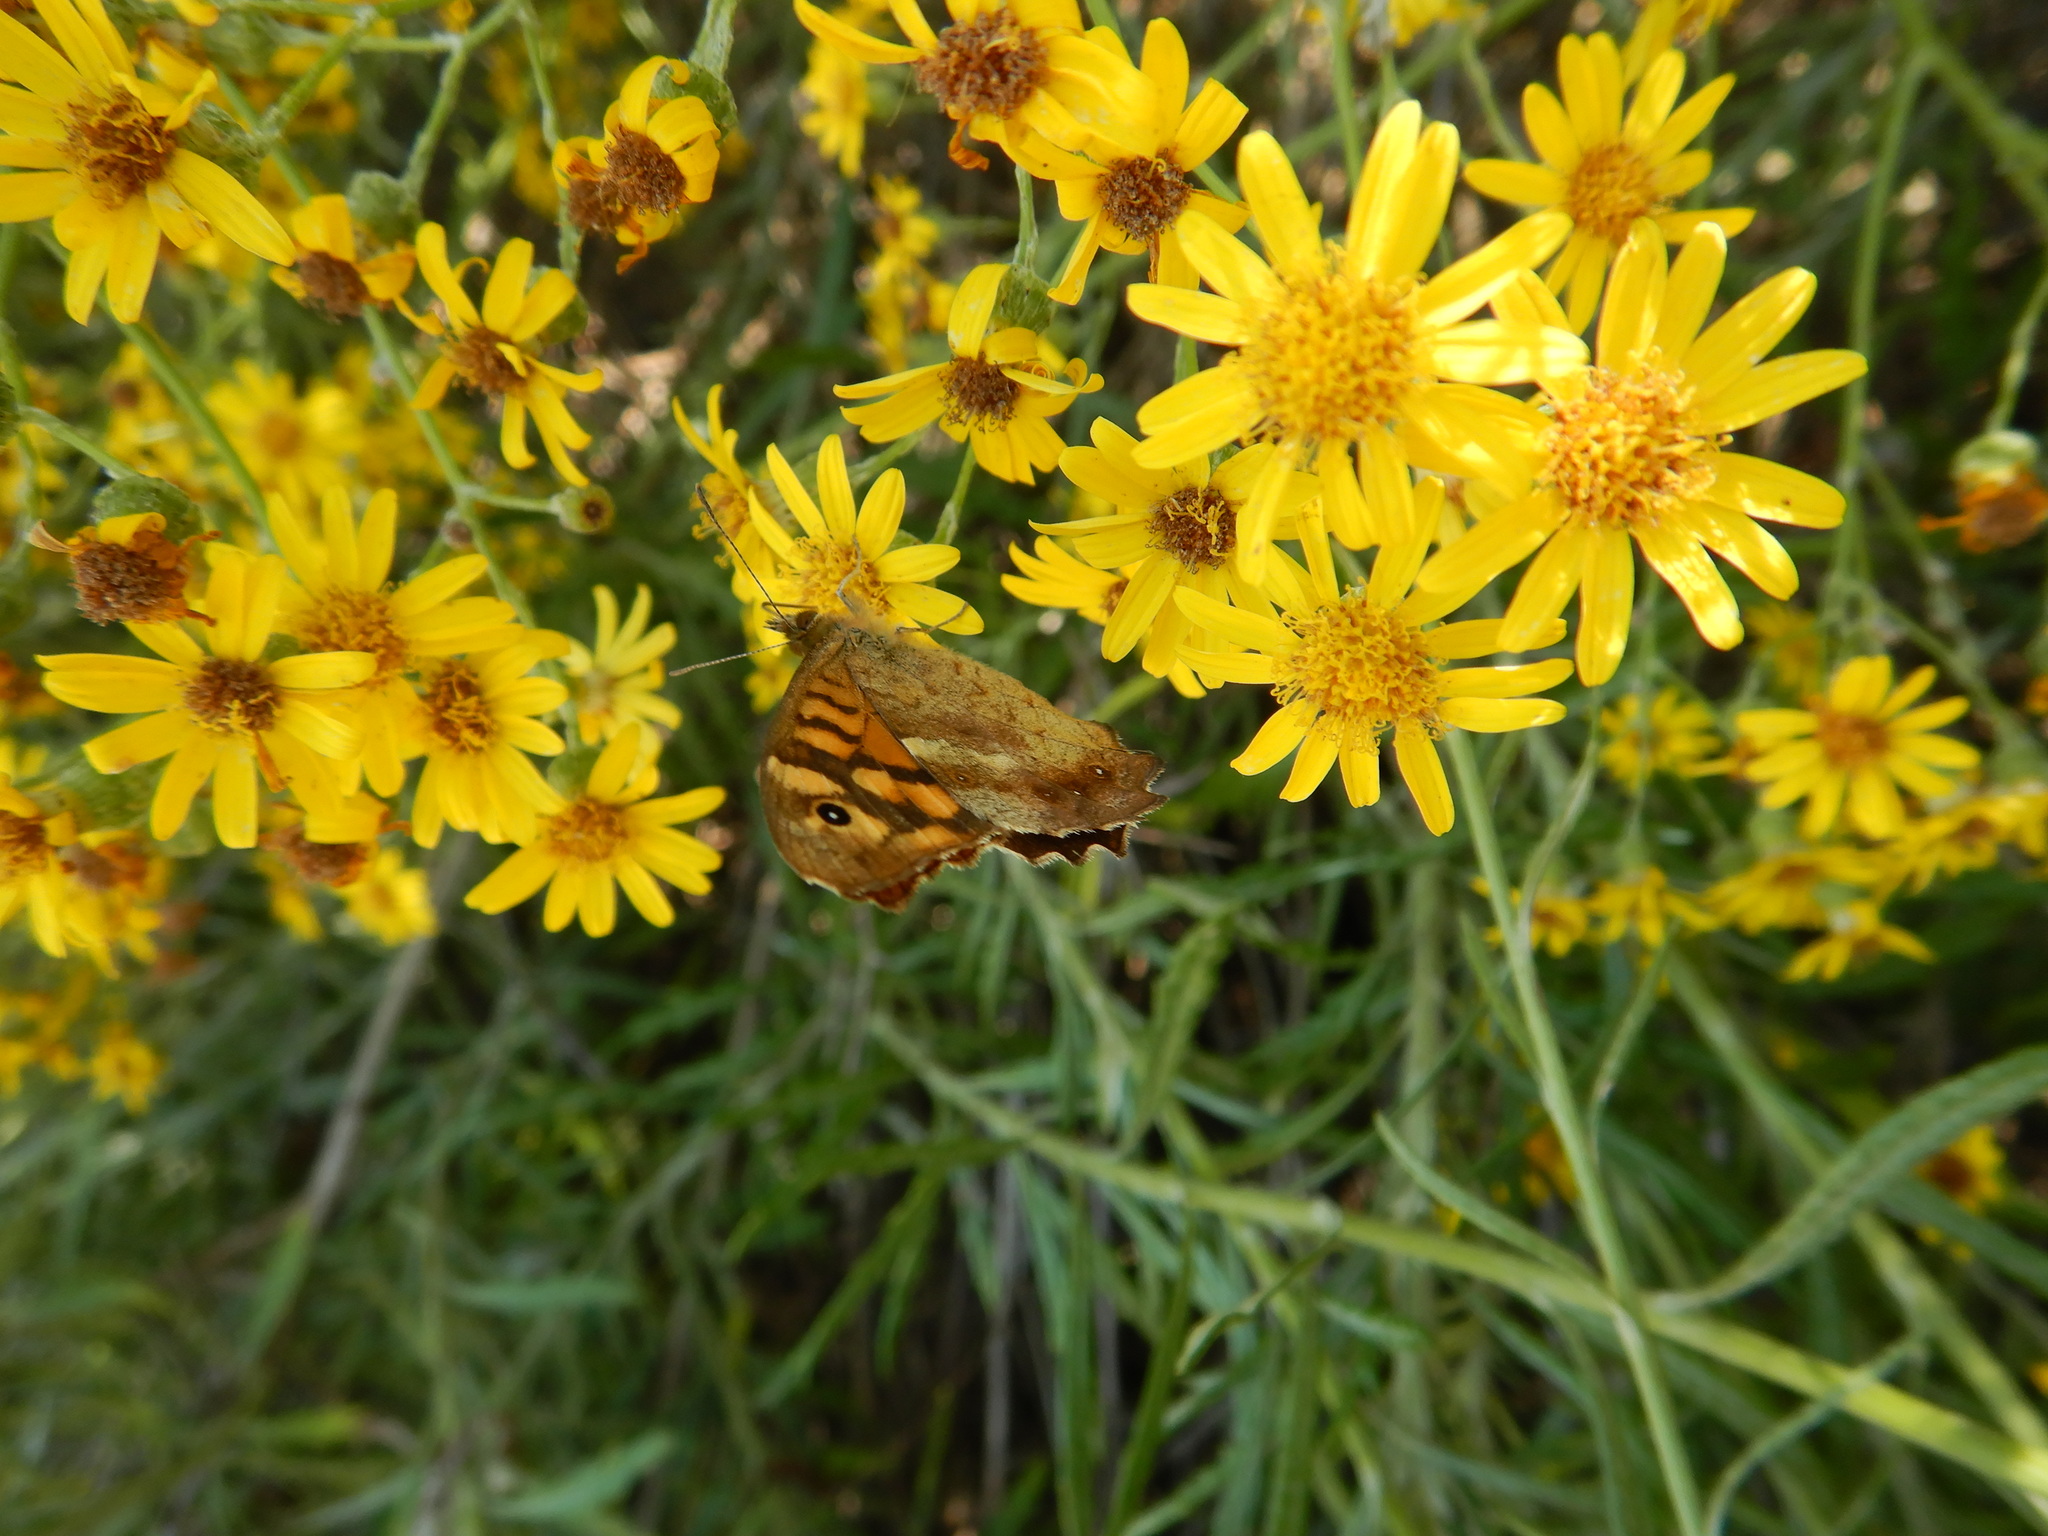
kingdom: Animalia
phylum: Arthropoda
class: Insecta
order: Lepidoptera
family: Nymphalidae
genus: Pararge
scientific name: Pararge aegeria
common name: Speckled wood
